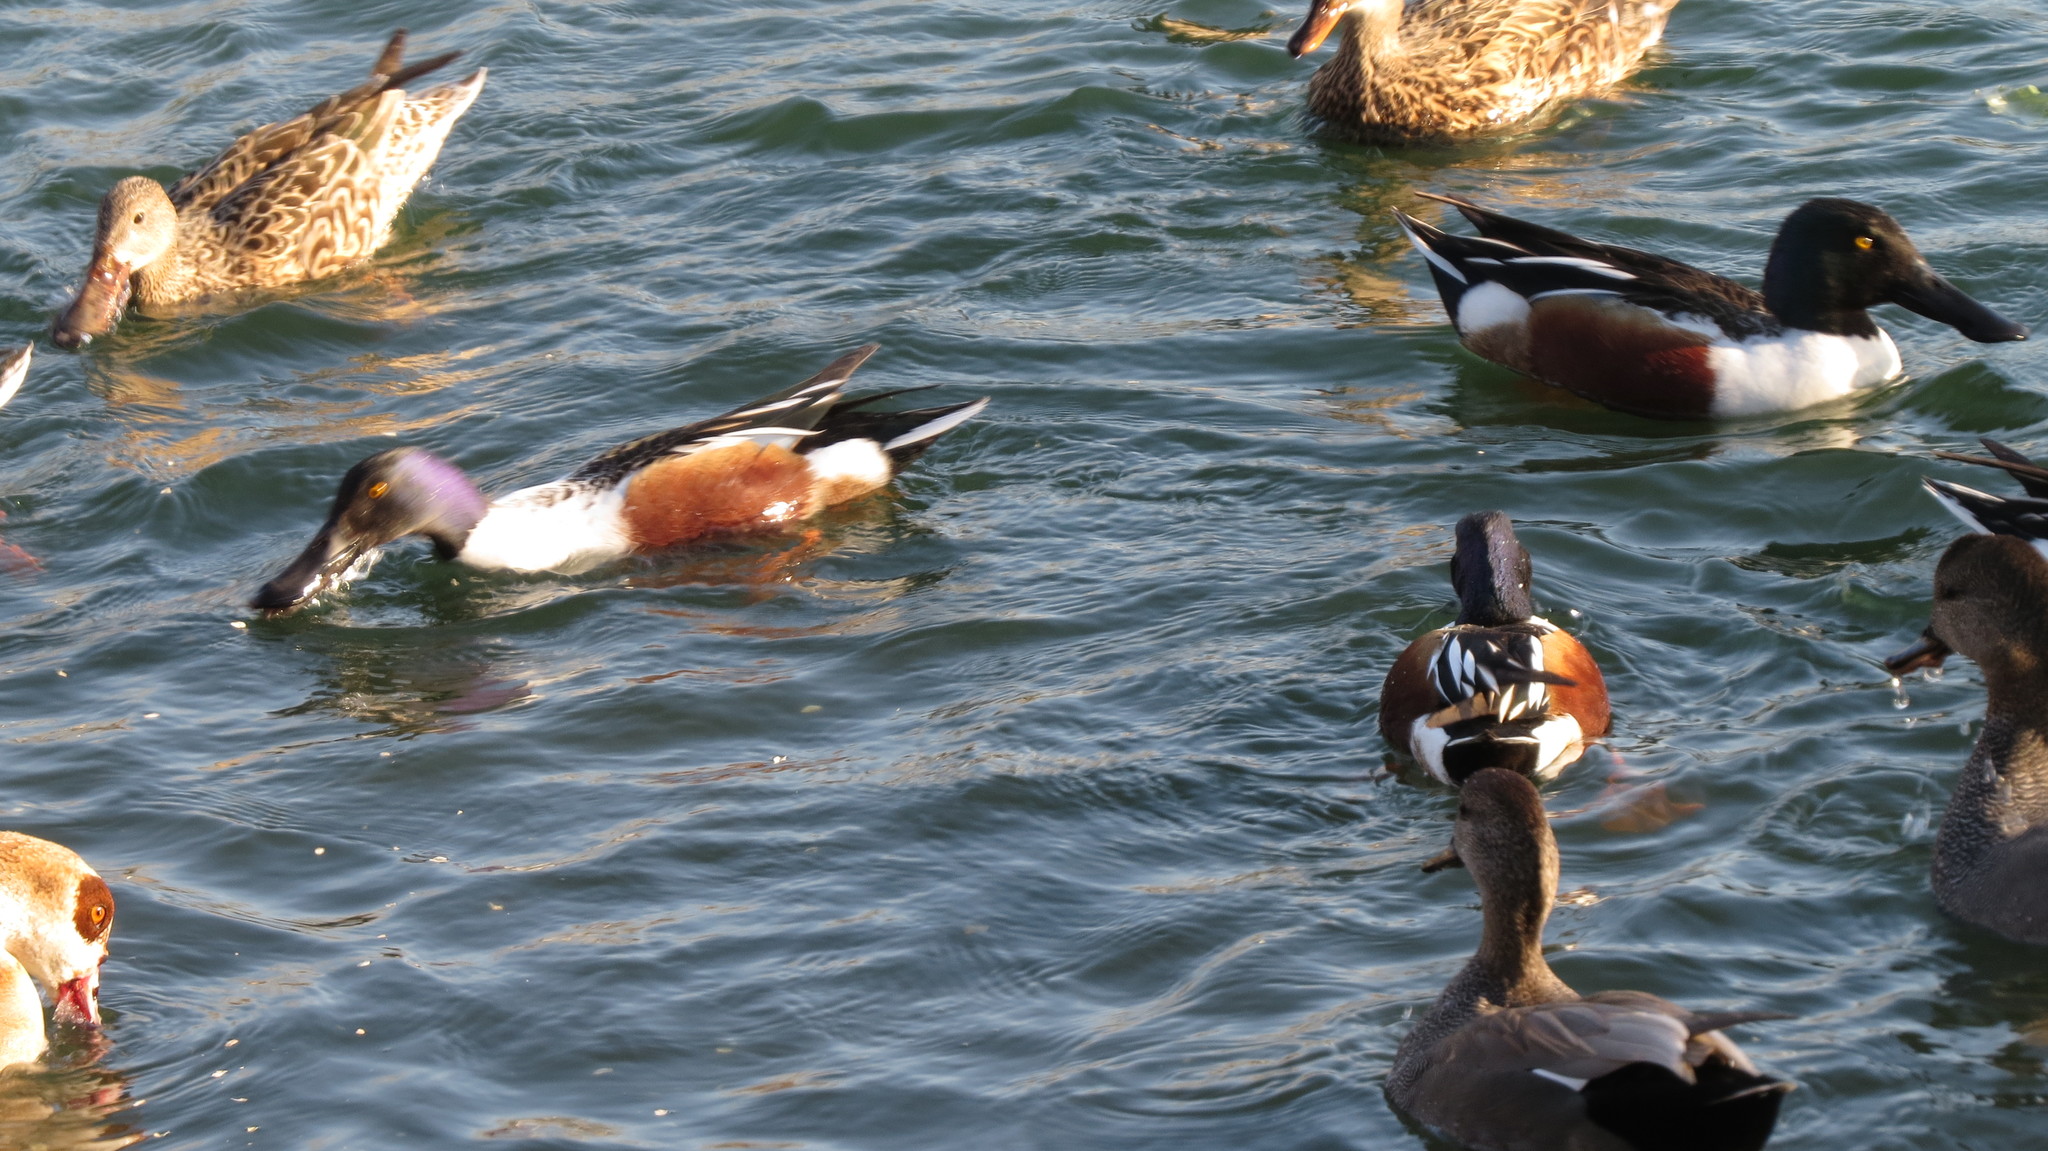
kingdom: Animalia
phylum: Chordata
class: Aves
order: Anseriformes
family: Anatidae
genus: Spatula
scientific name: Spatula clypeata
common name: Northern shoveler
